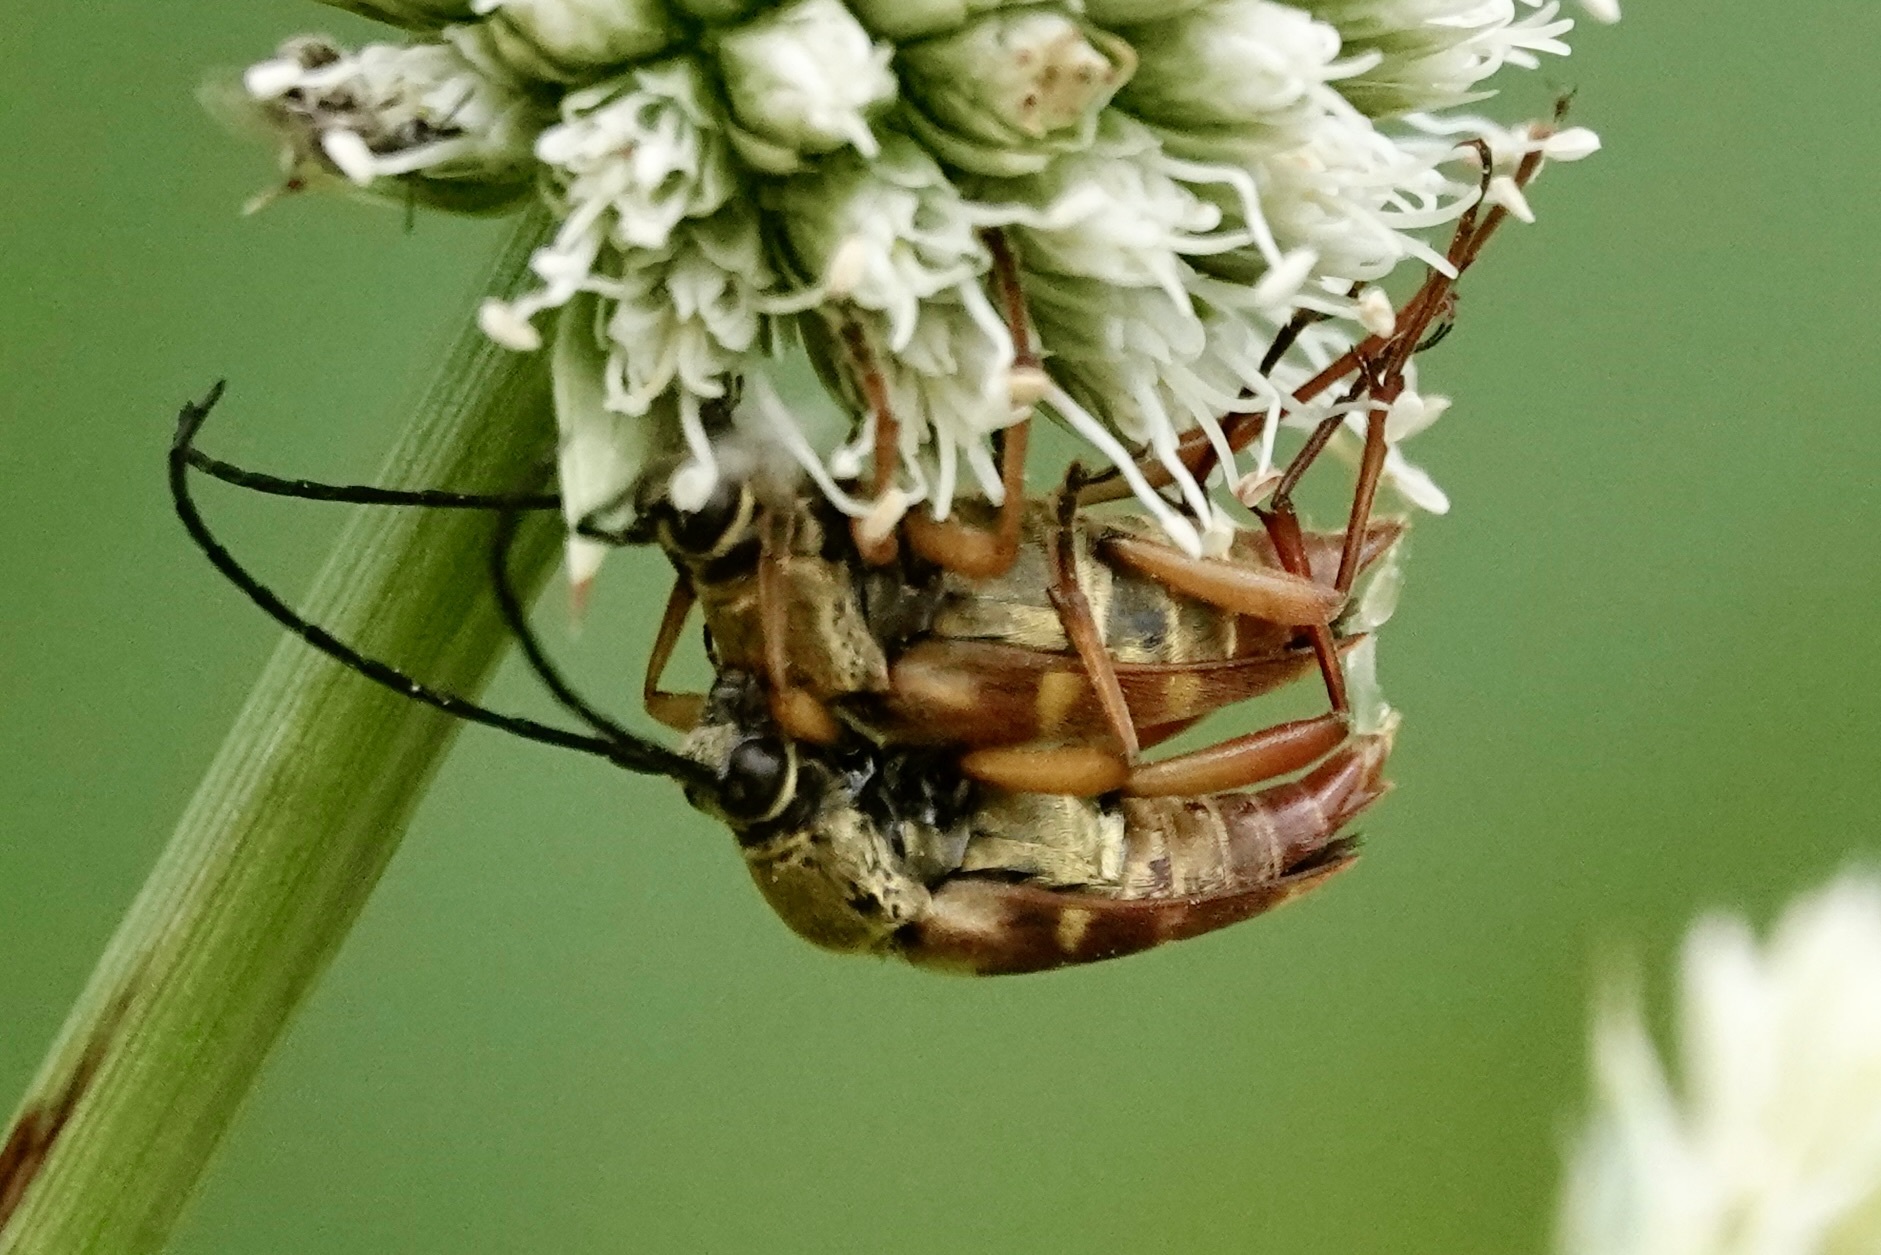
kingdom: Animalia
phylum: Arthropoda
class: Insecta
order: Coleoptera
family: Cerambycidae
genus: Typocerus
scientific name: Typocerus velutinus
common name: Banded longhorn beetle
